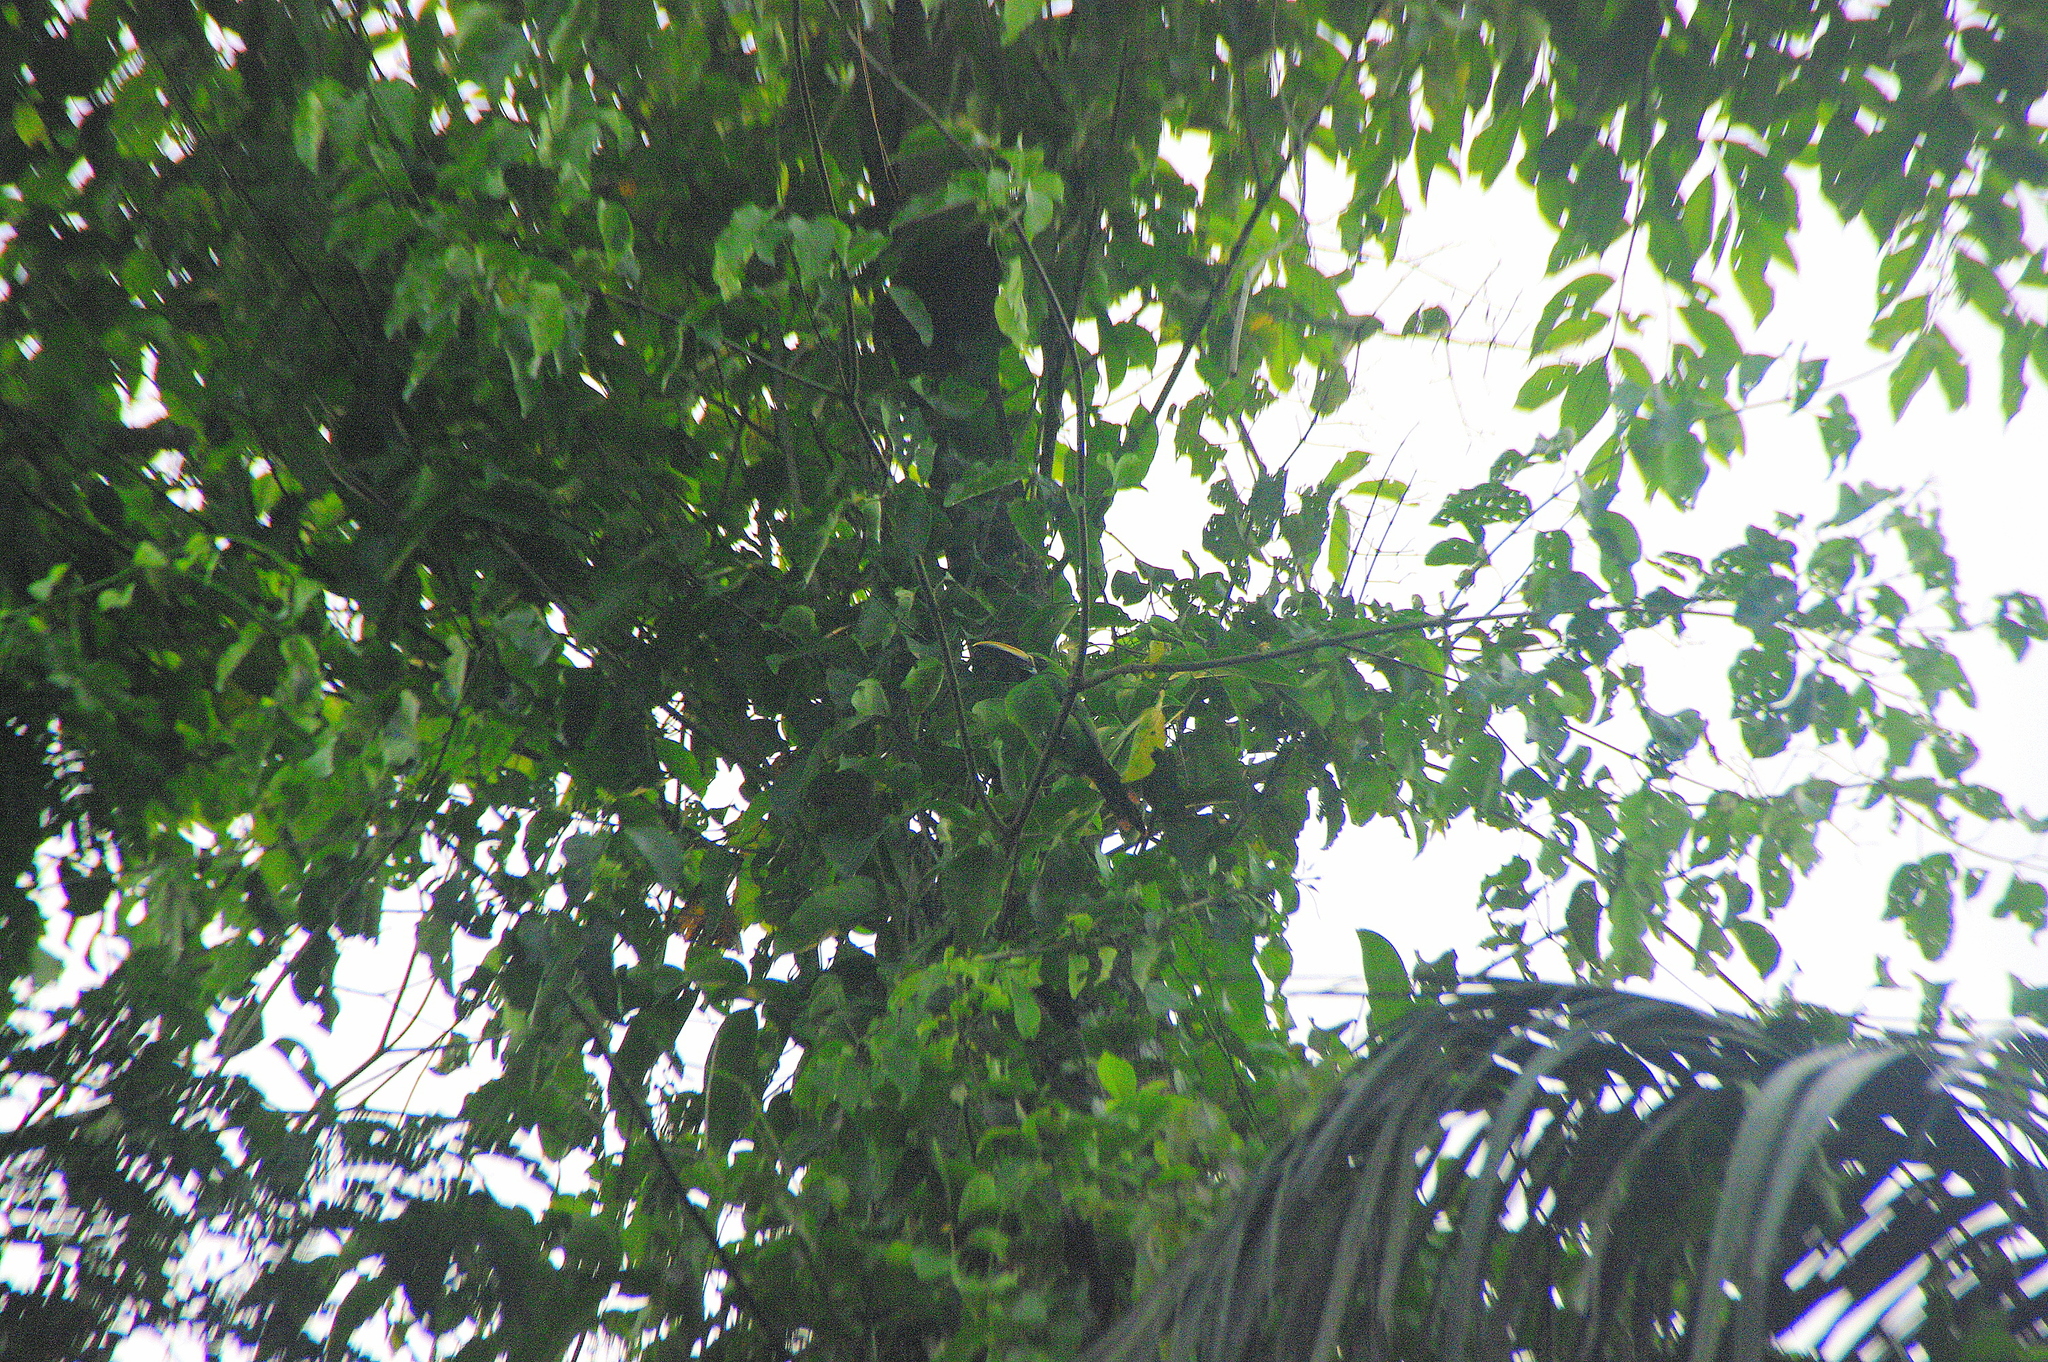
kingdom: Animalia
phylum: Chordata
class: Aves
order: Piciformes
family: Ramphastidae
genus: Aulacorhynchus
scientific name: Aulacorhynchus albivitta
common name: White-throated toucanet
